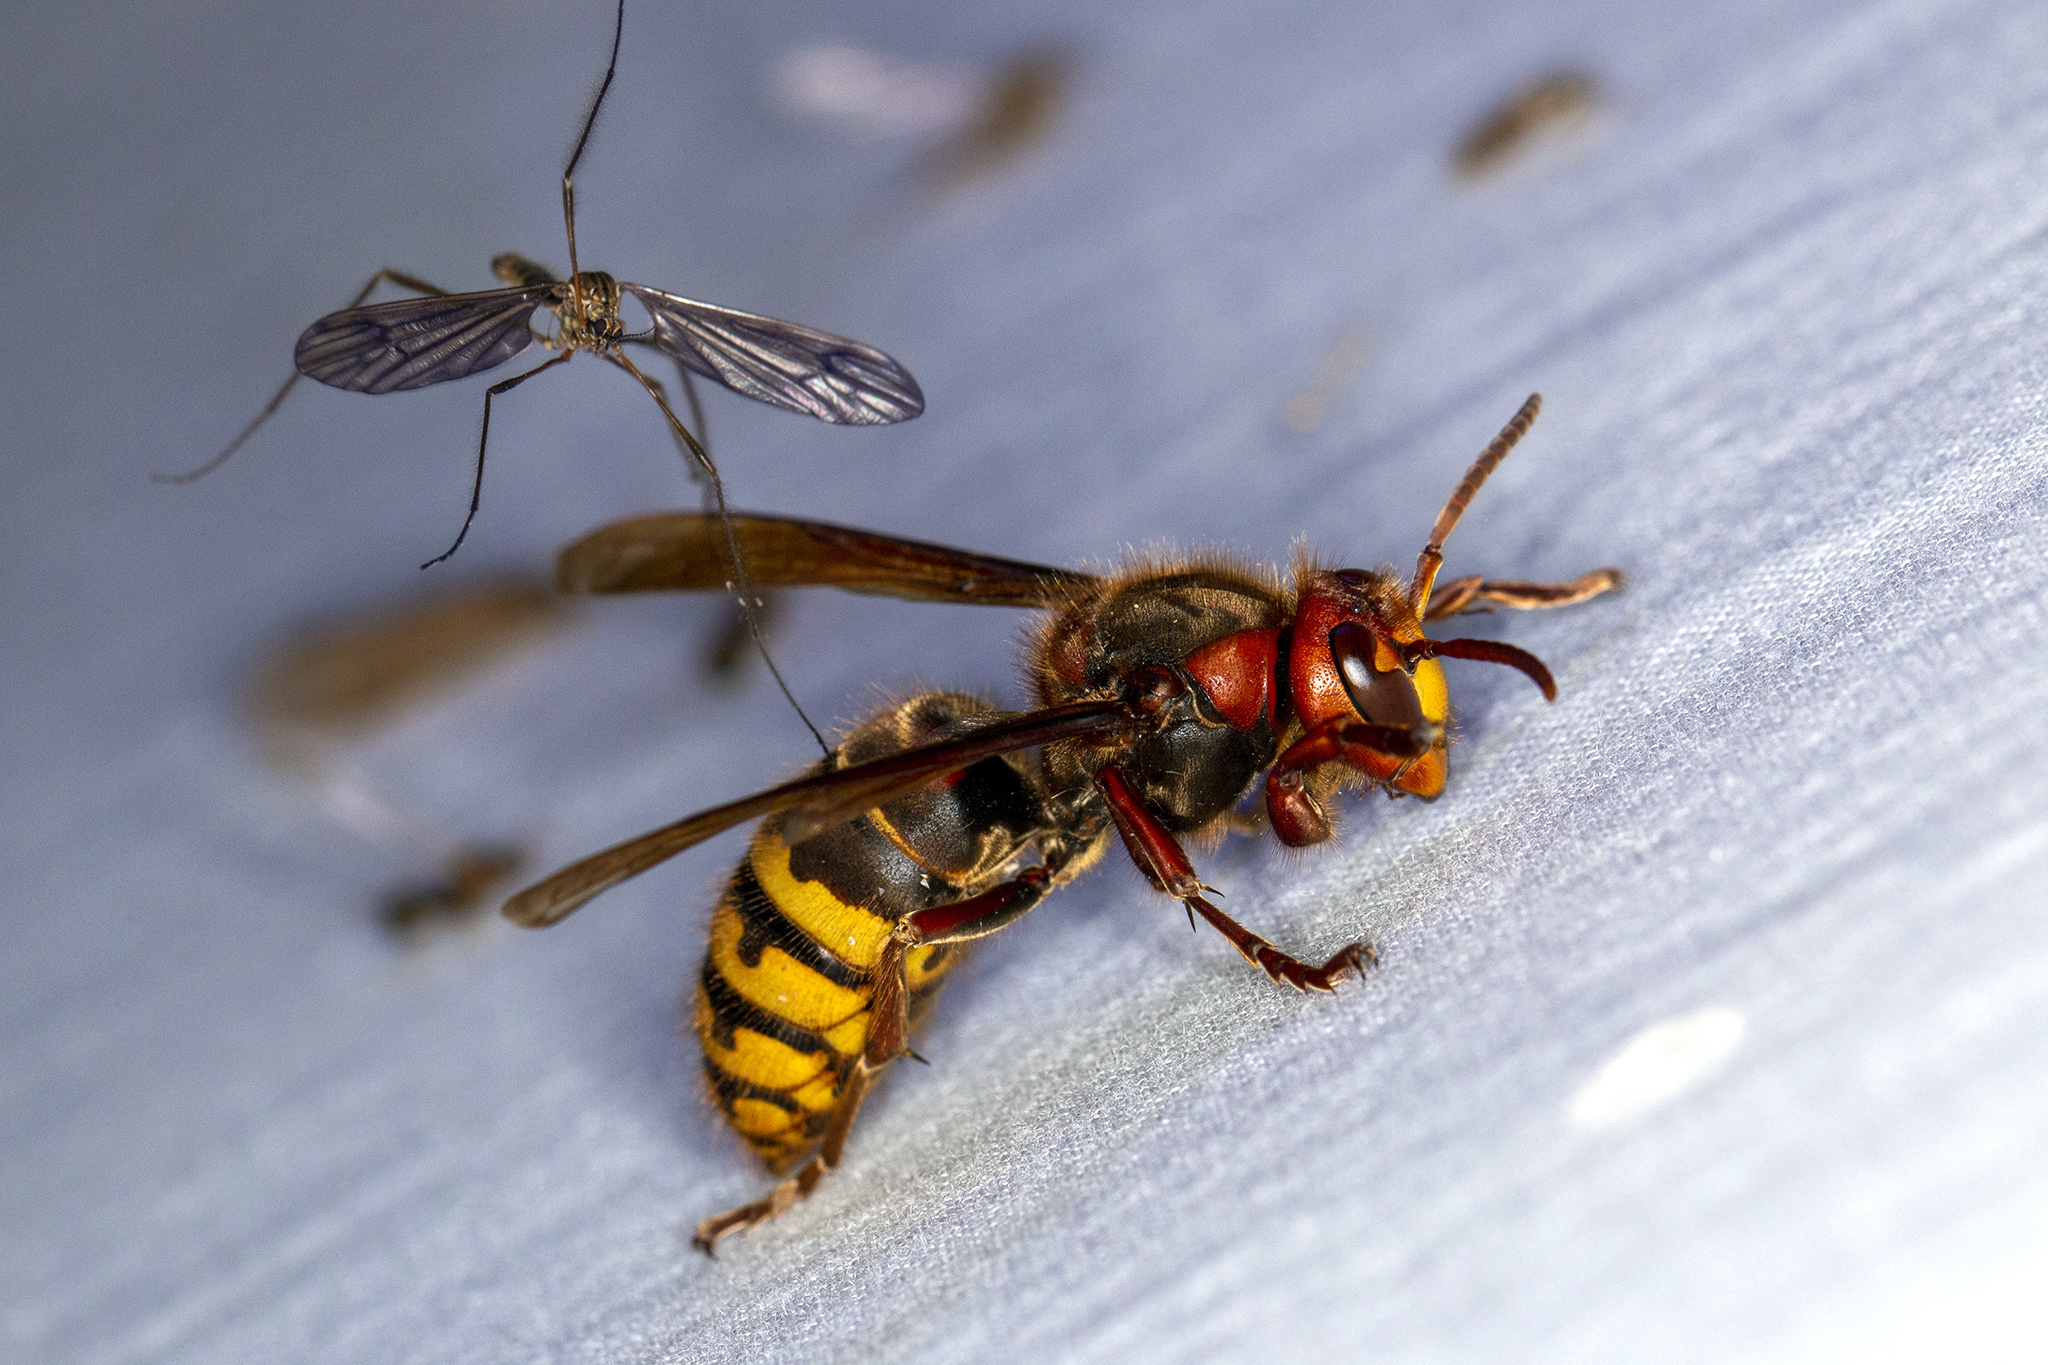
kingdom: Animalia
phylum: Arthropoda
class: Insecta
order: Hymenoptera
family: Vespidae
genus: Vespa
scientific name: Vespa crabro
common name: Hornet
